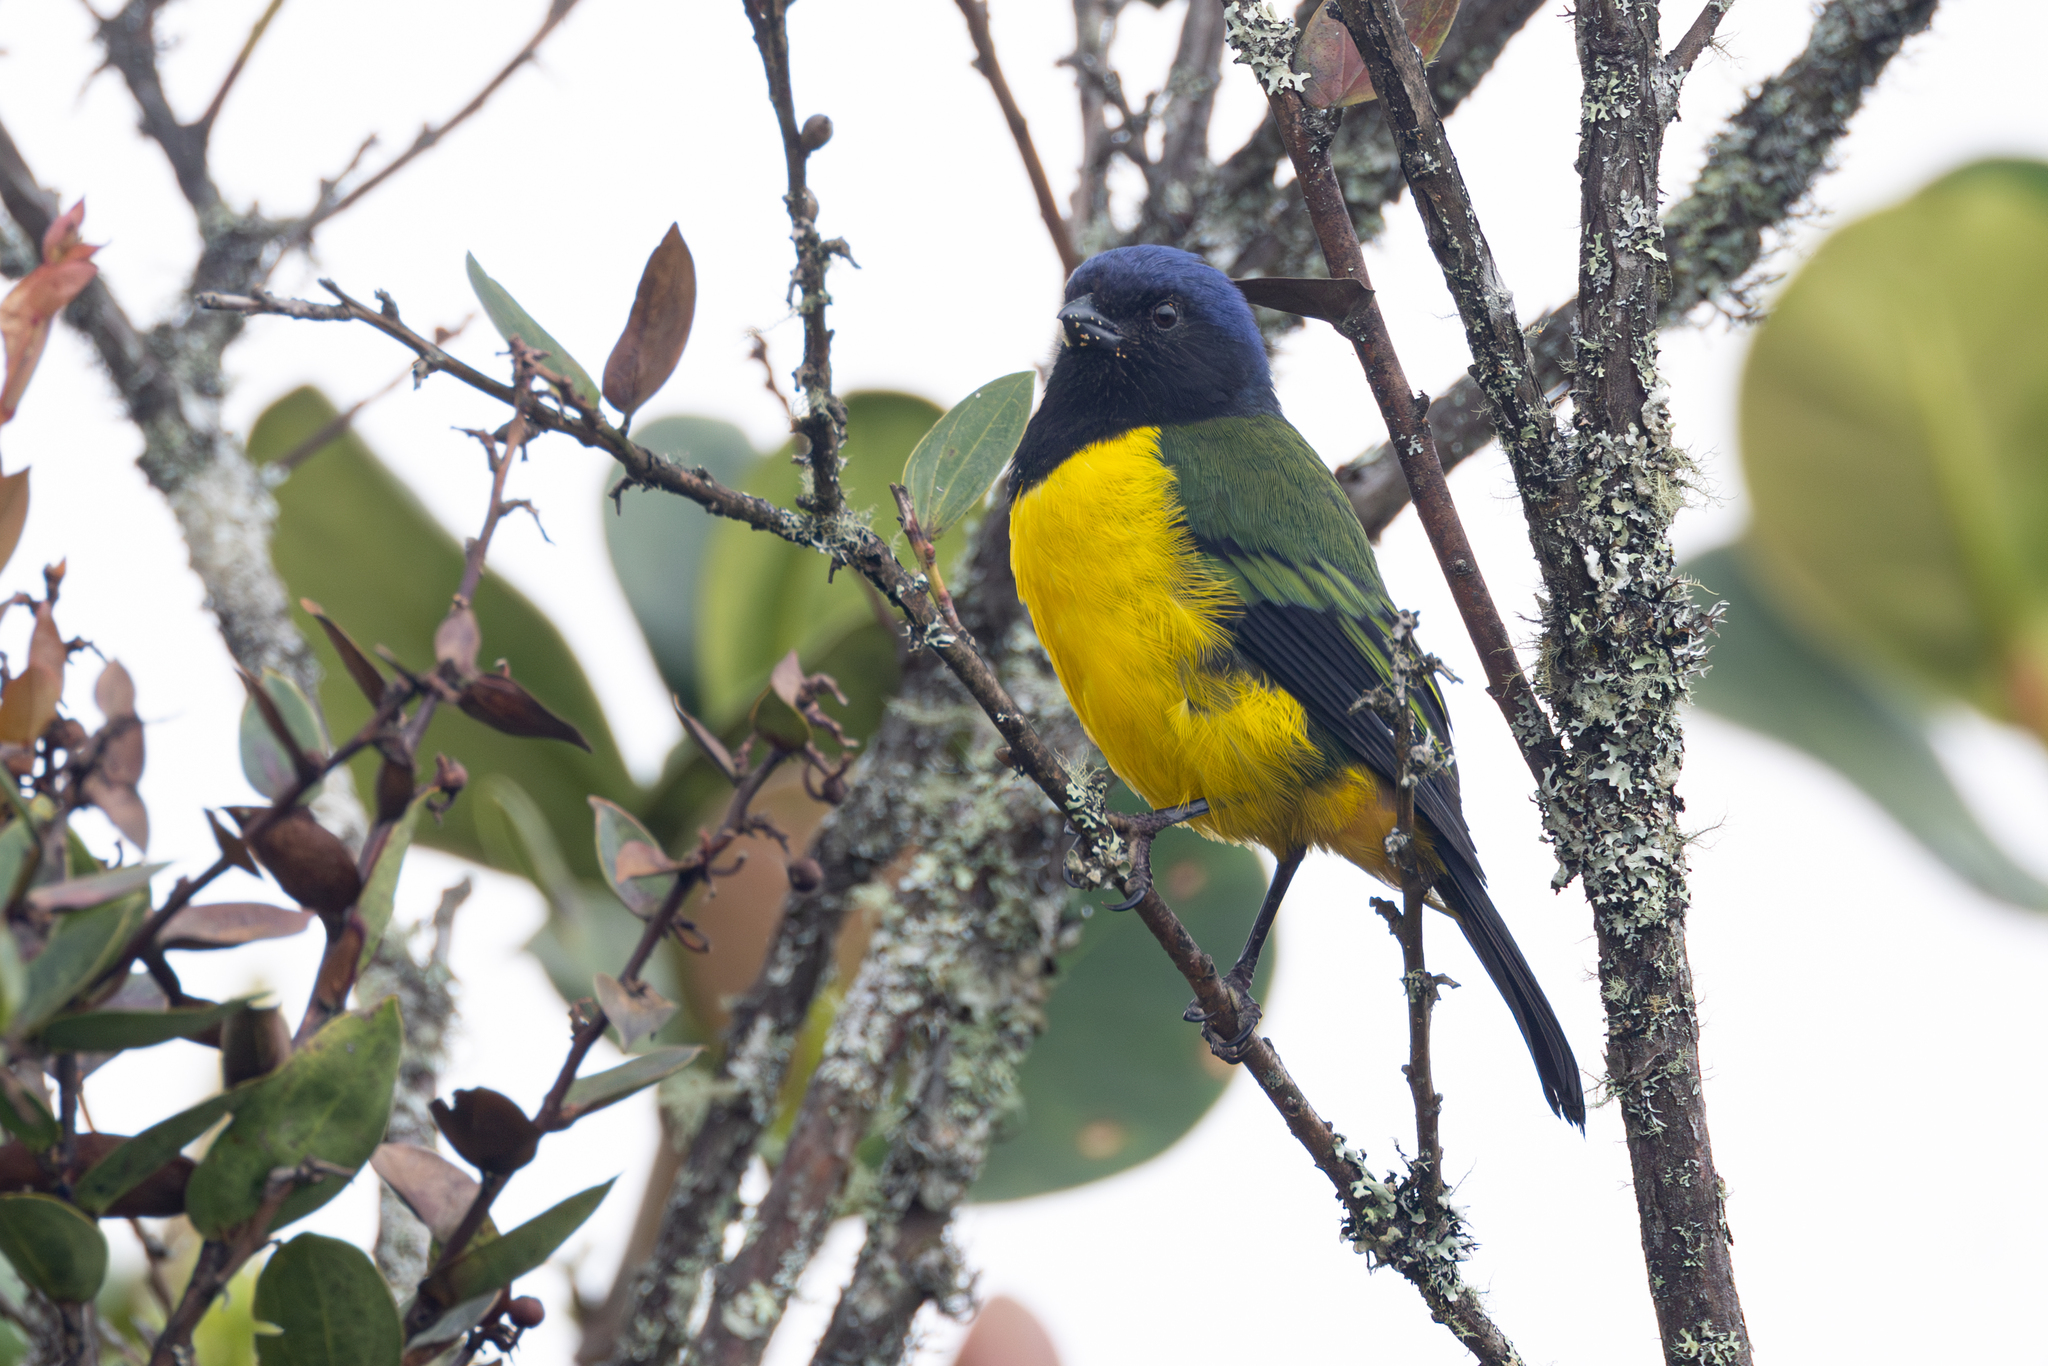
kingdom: Animalia
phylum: Chordata
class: Aves
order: Passeriformes
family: Thraupidae
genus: Cnemathraupis
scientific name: Cnemathraupis eximia
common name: Black-chested mountain-tanager
